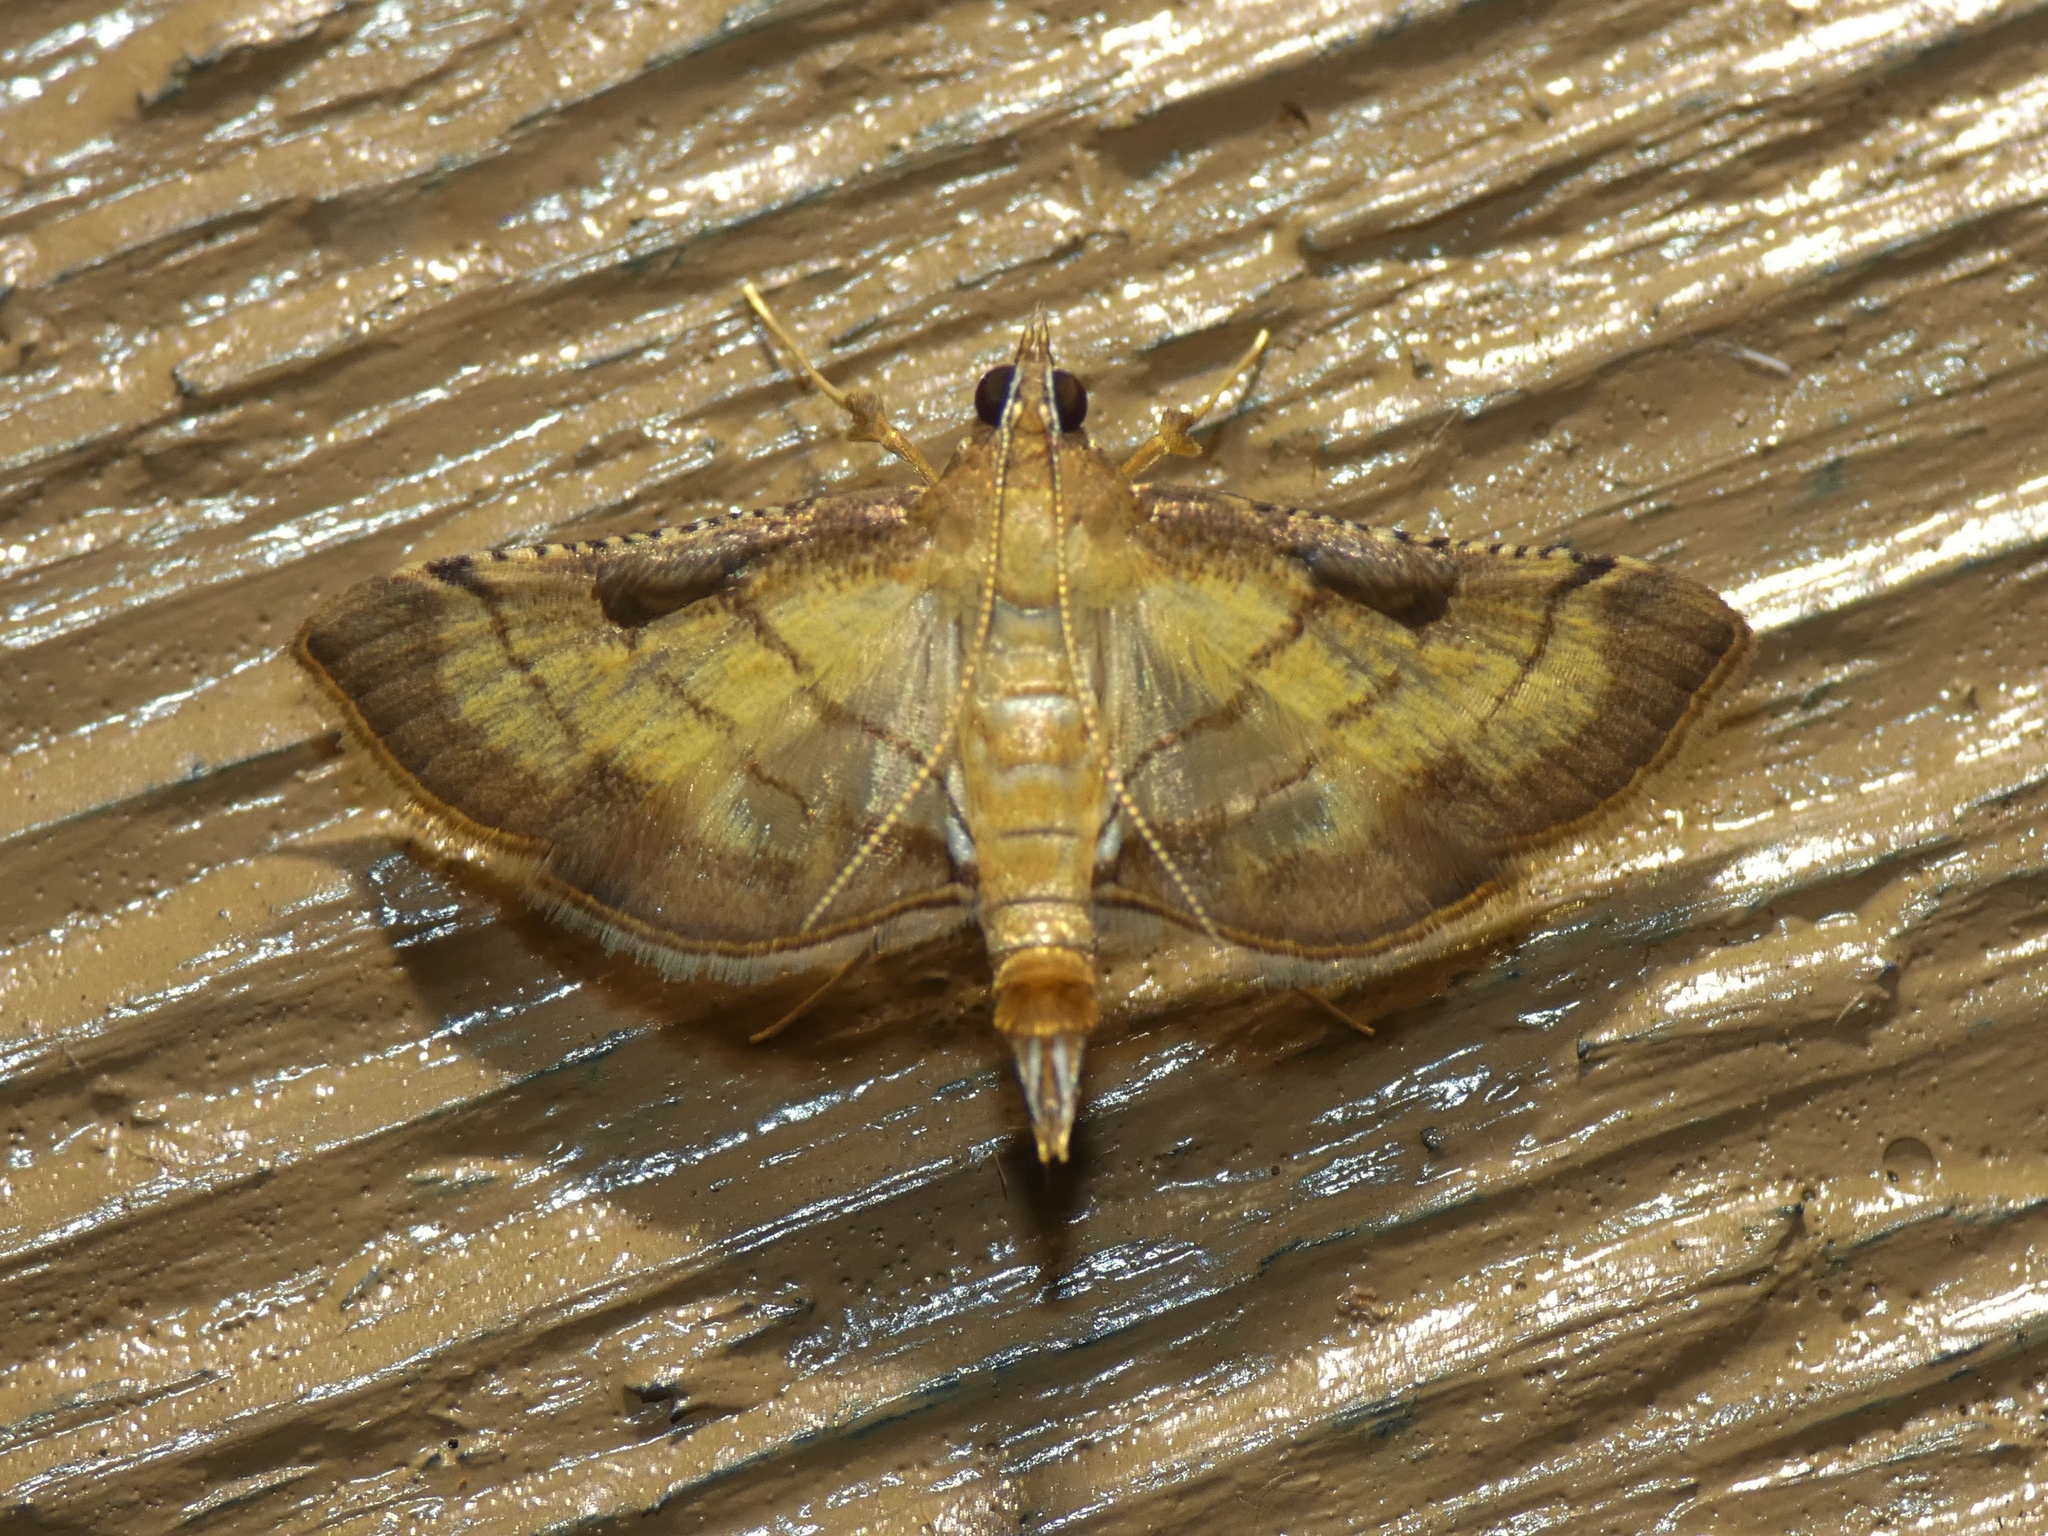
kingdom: Animalia
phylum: Arthropoda
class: Insecta
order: Lepidoptera
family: Crambidae
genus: Cnaphalocrocis
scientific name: Cnaphalocrocis poeyalis
